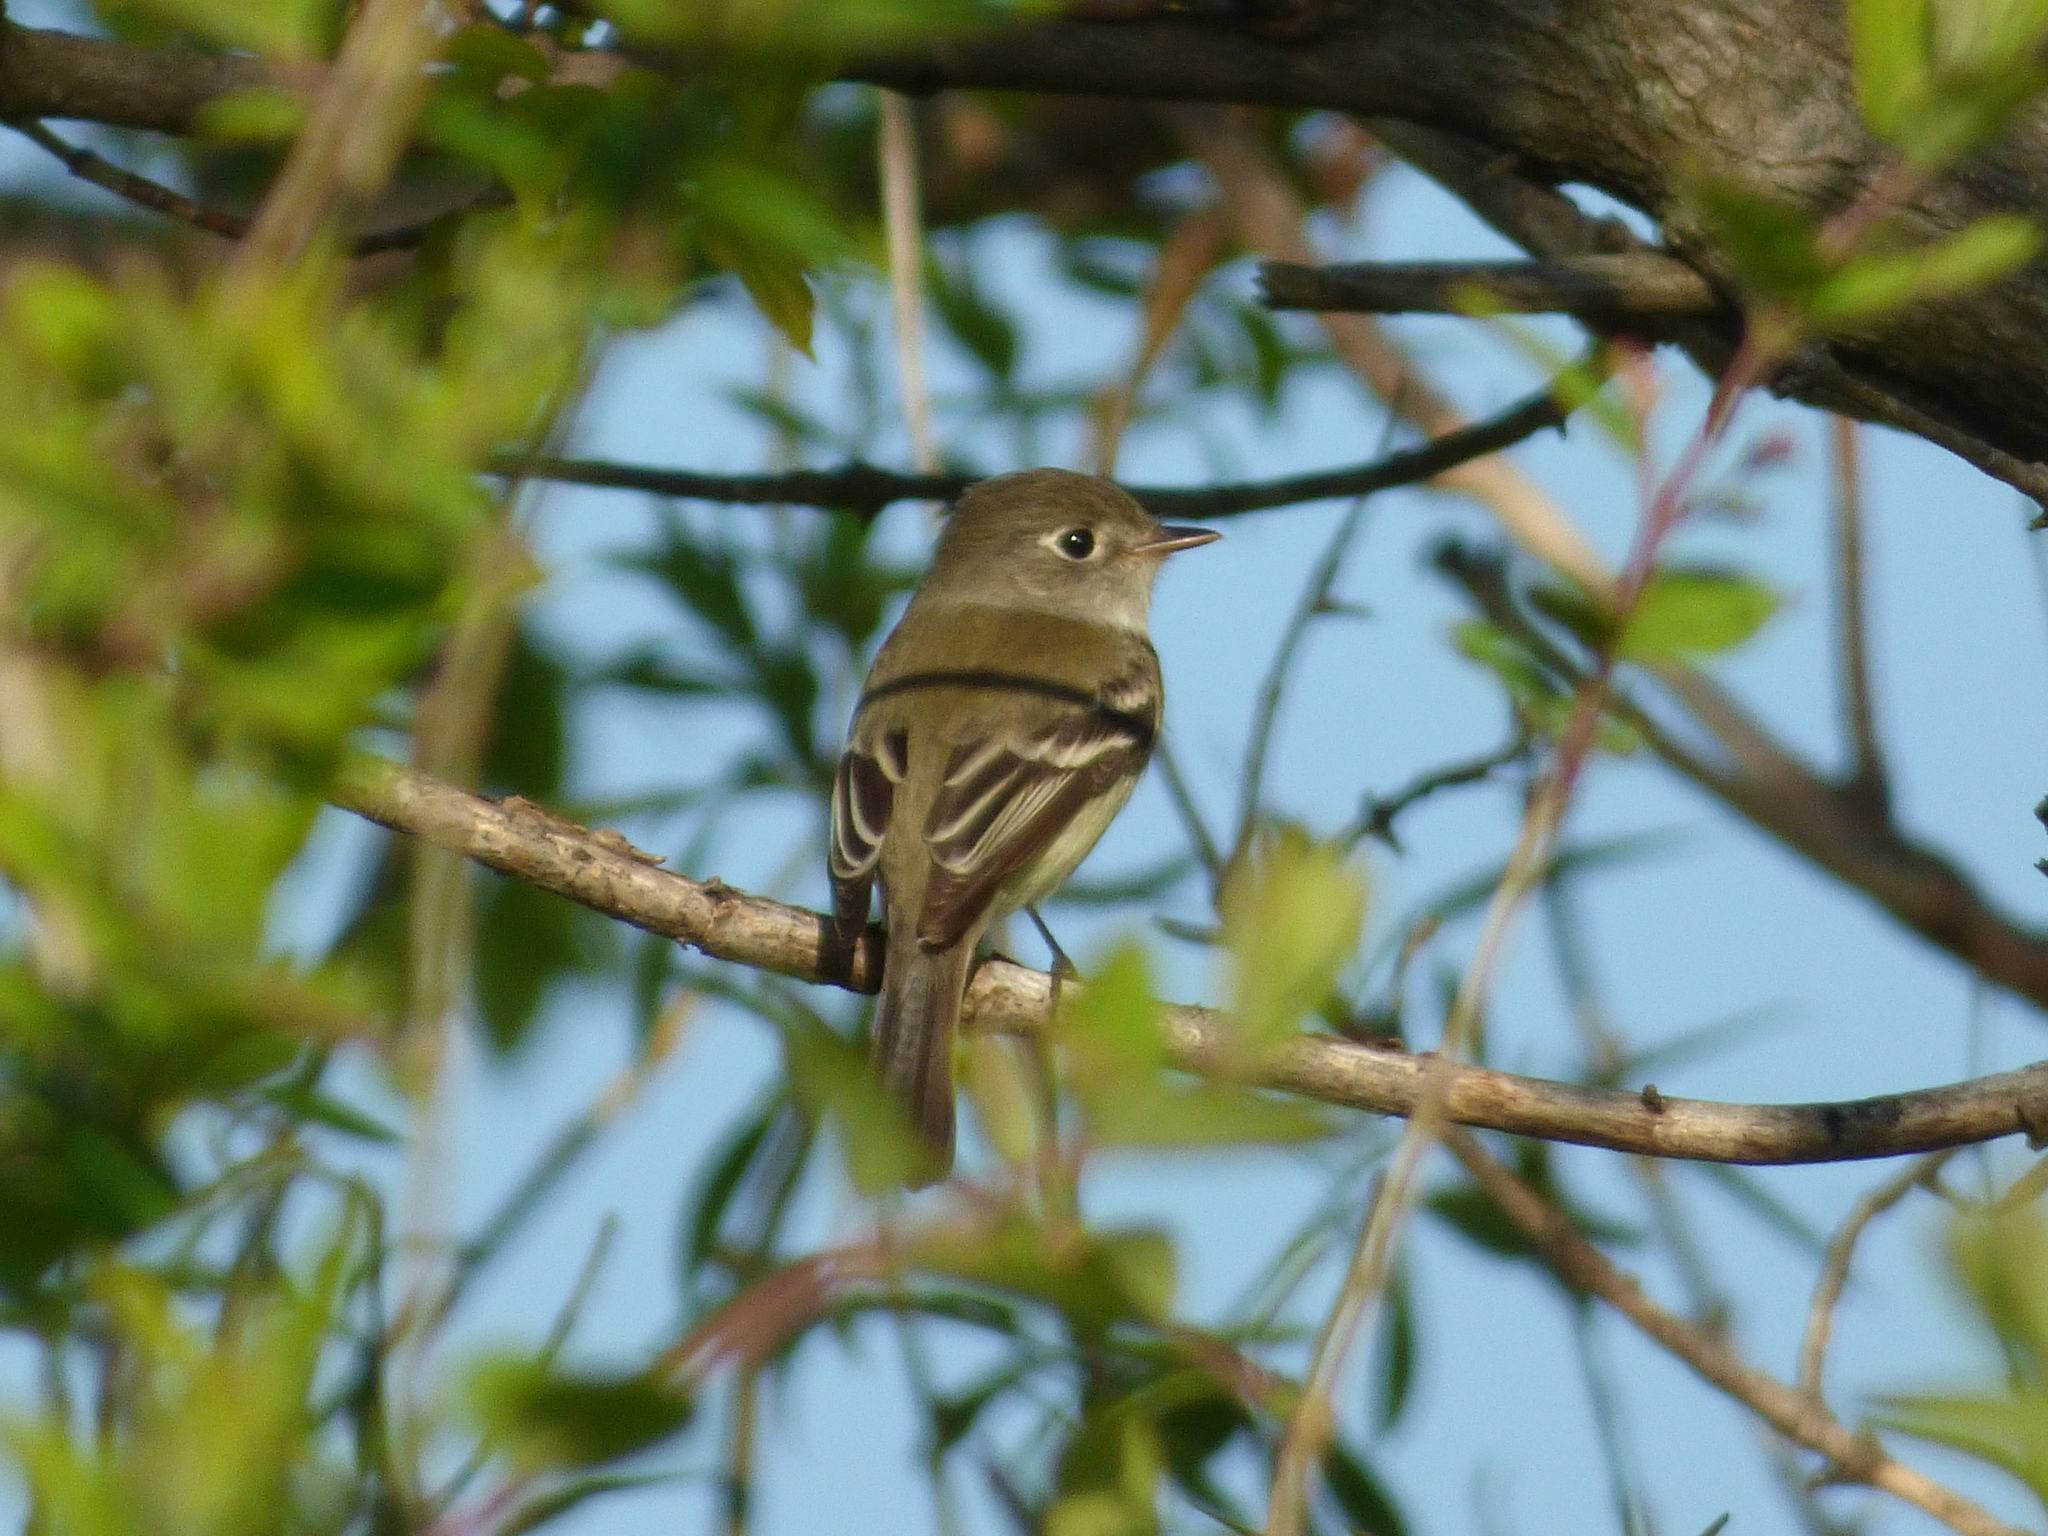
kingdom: Animalia
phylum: Chordata
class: Aves
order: Passeriformes
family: Tyrannidae
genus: Empidonax
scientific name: Empidonax minimus
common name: Least flycatcher
